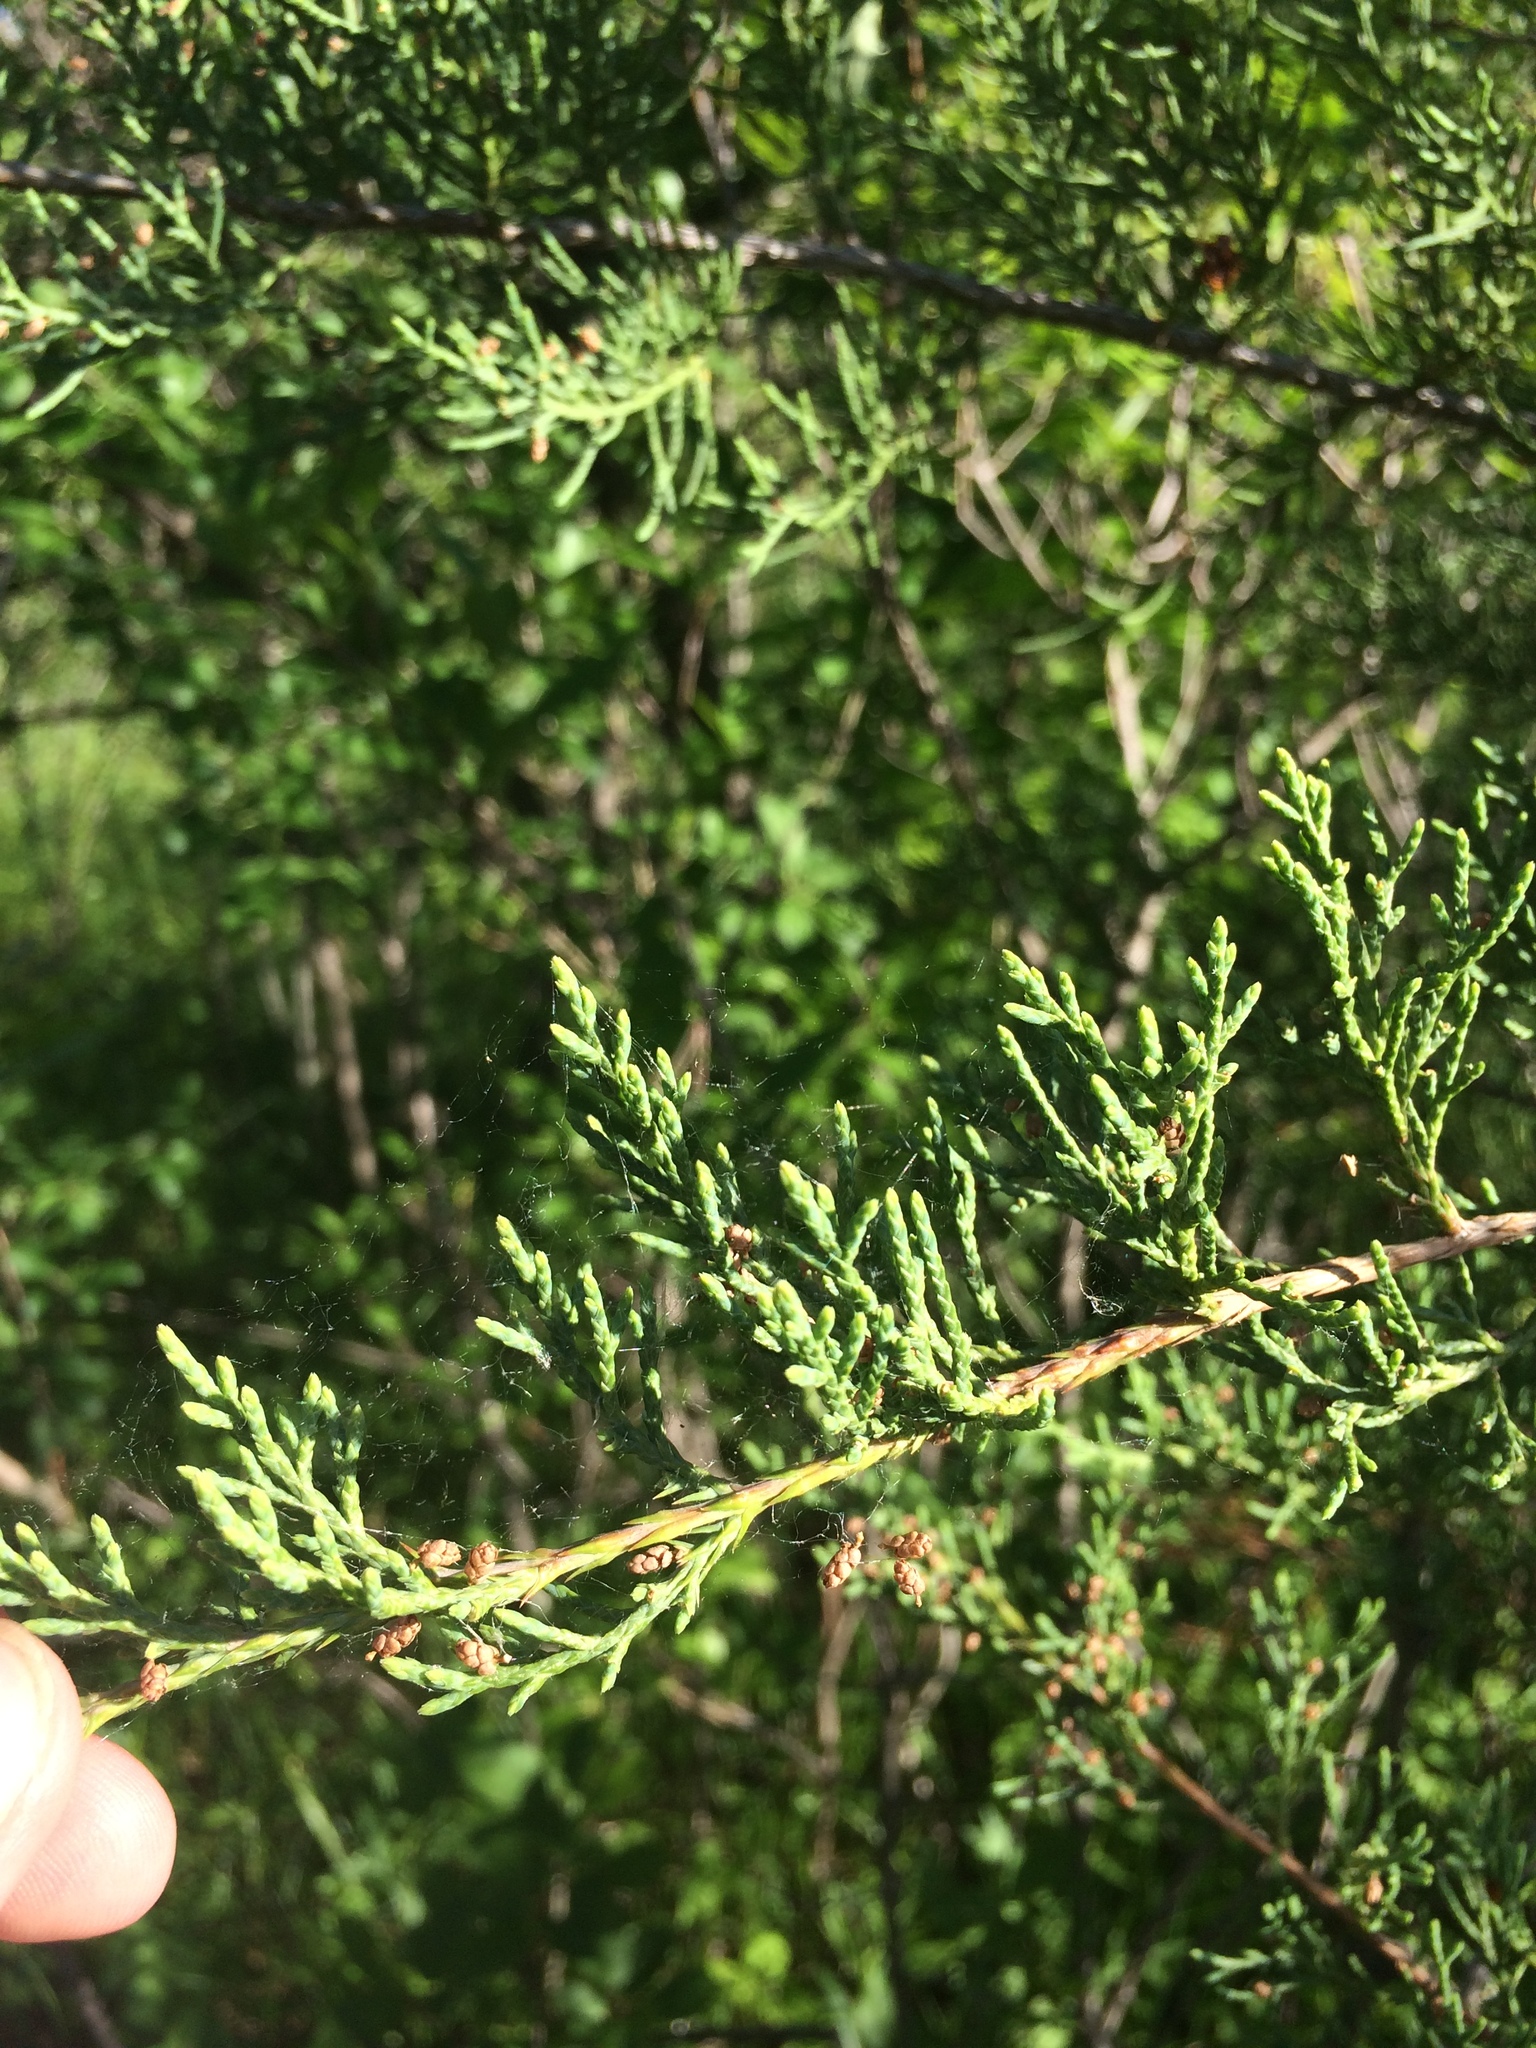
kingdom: Plantae
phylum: Tracheophyta
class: Pinopsida
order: Pinales
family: Cupressaceae
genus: Juniperus
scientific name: Juniperus virginiana
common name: Red juniper
